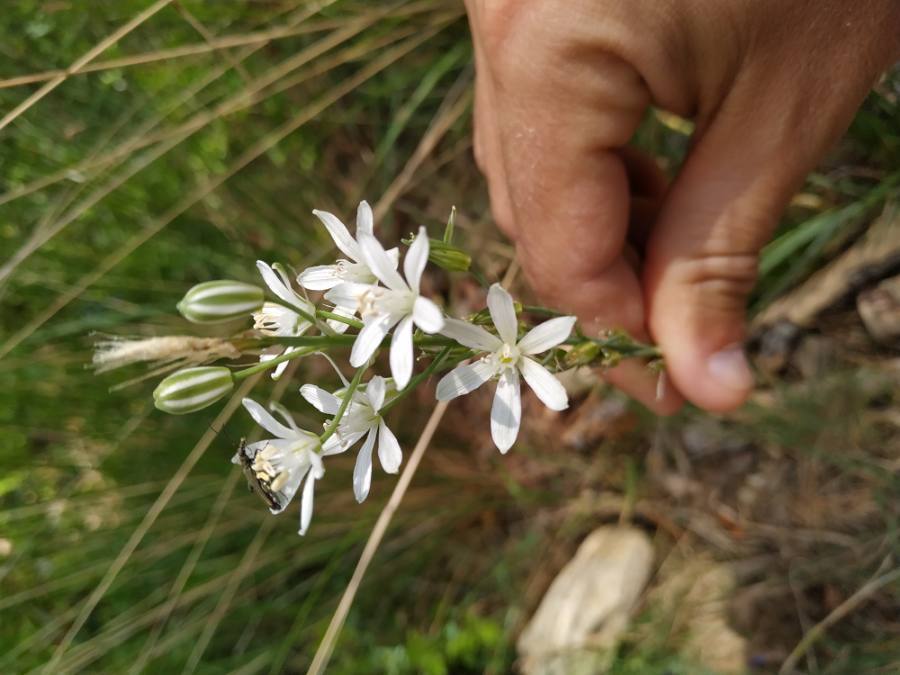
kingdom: Plantae
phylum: Tracheophyta
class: Liliopsida
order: Asparagales
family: Asparagaceae
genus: Ornithogalum
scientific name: Ornithogalum narbonense
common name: Bath-asparagus
